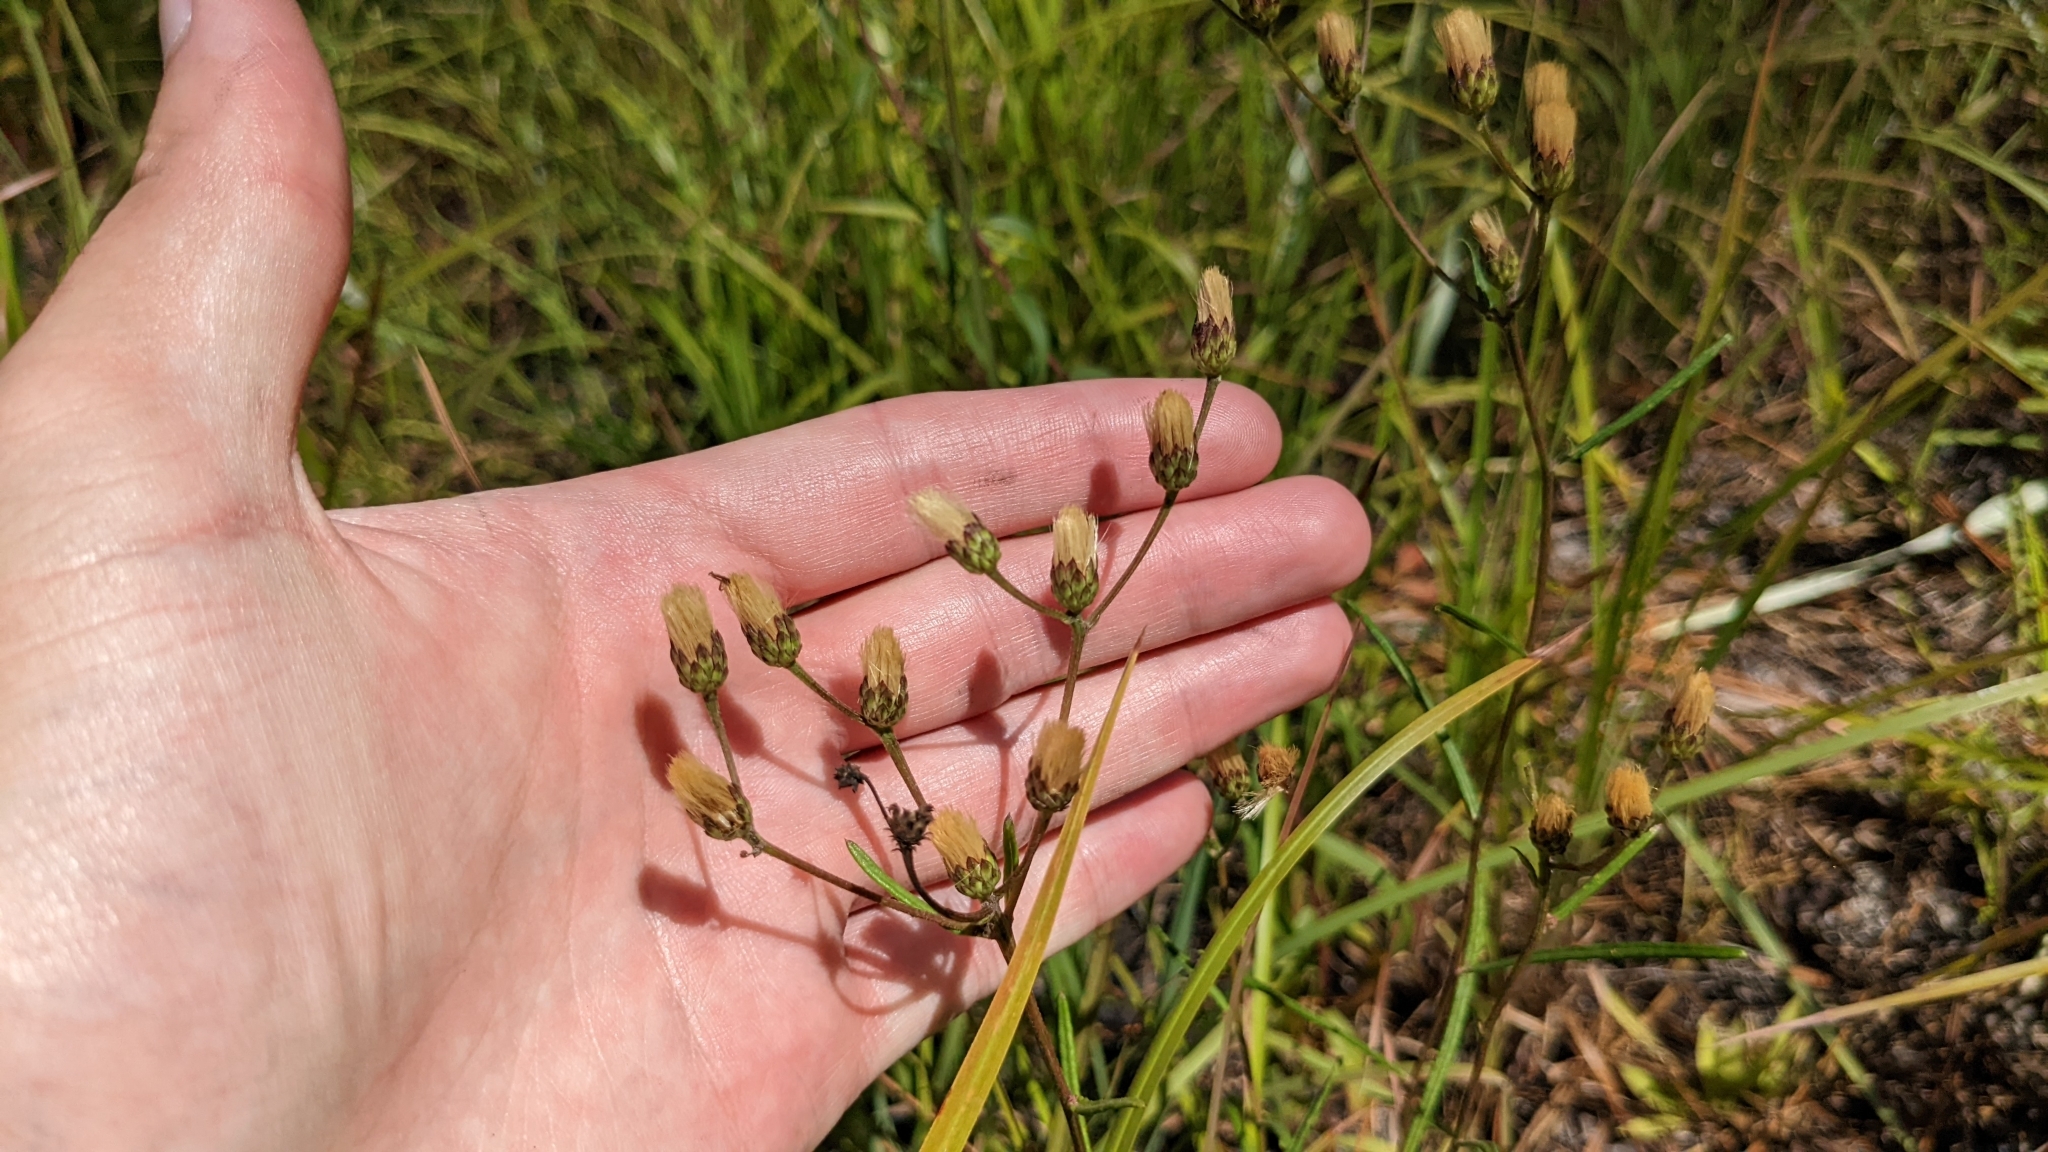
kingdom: Plantae
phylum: Tracheophyta
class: Magnoliopsida
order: Asterales
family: Asteraceae
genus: Vernonia
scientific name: Vernonia texana
